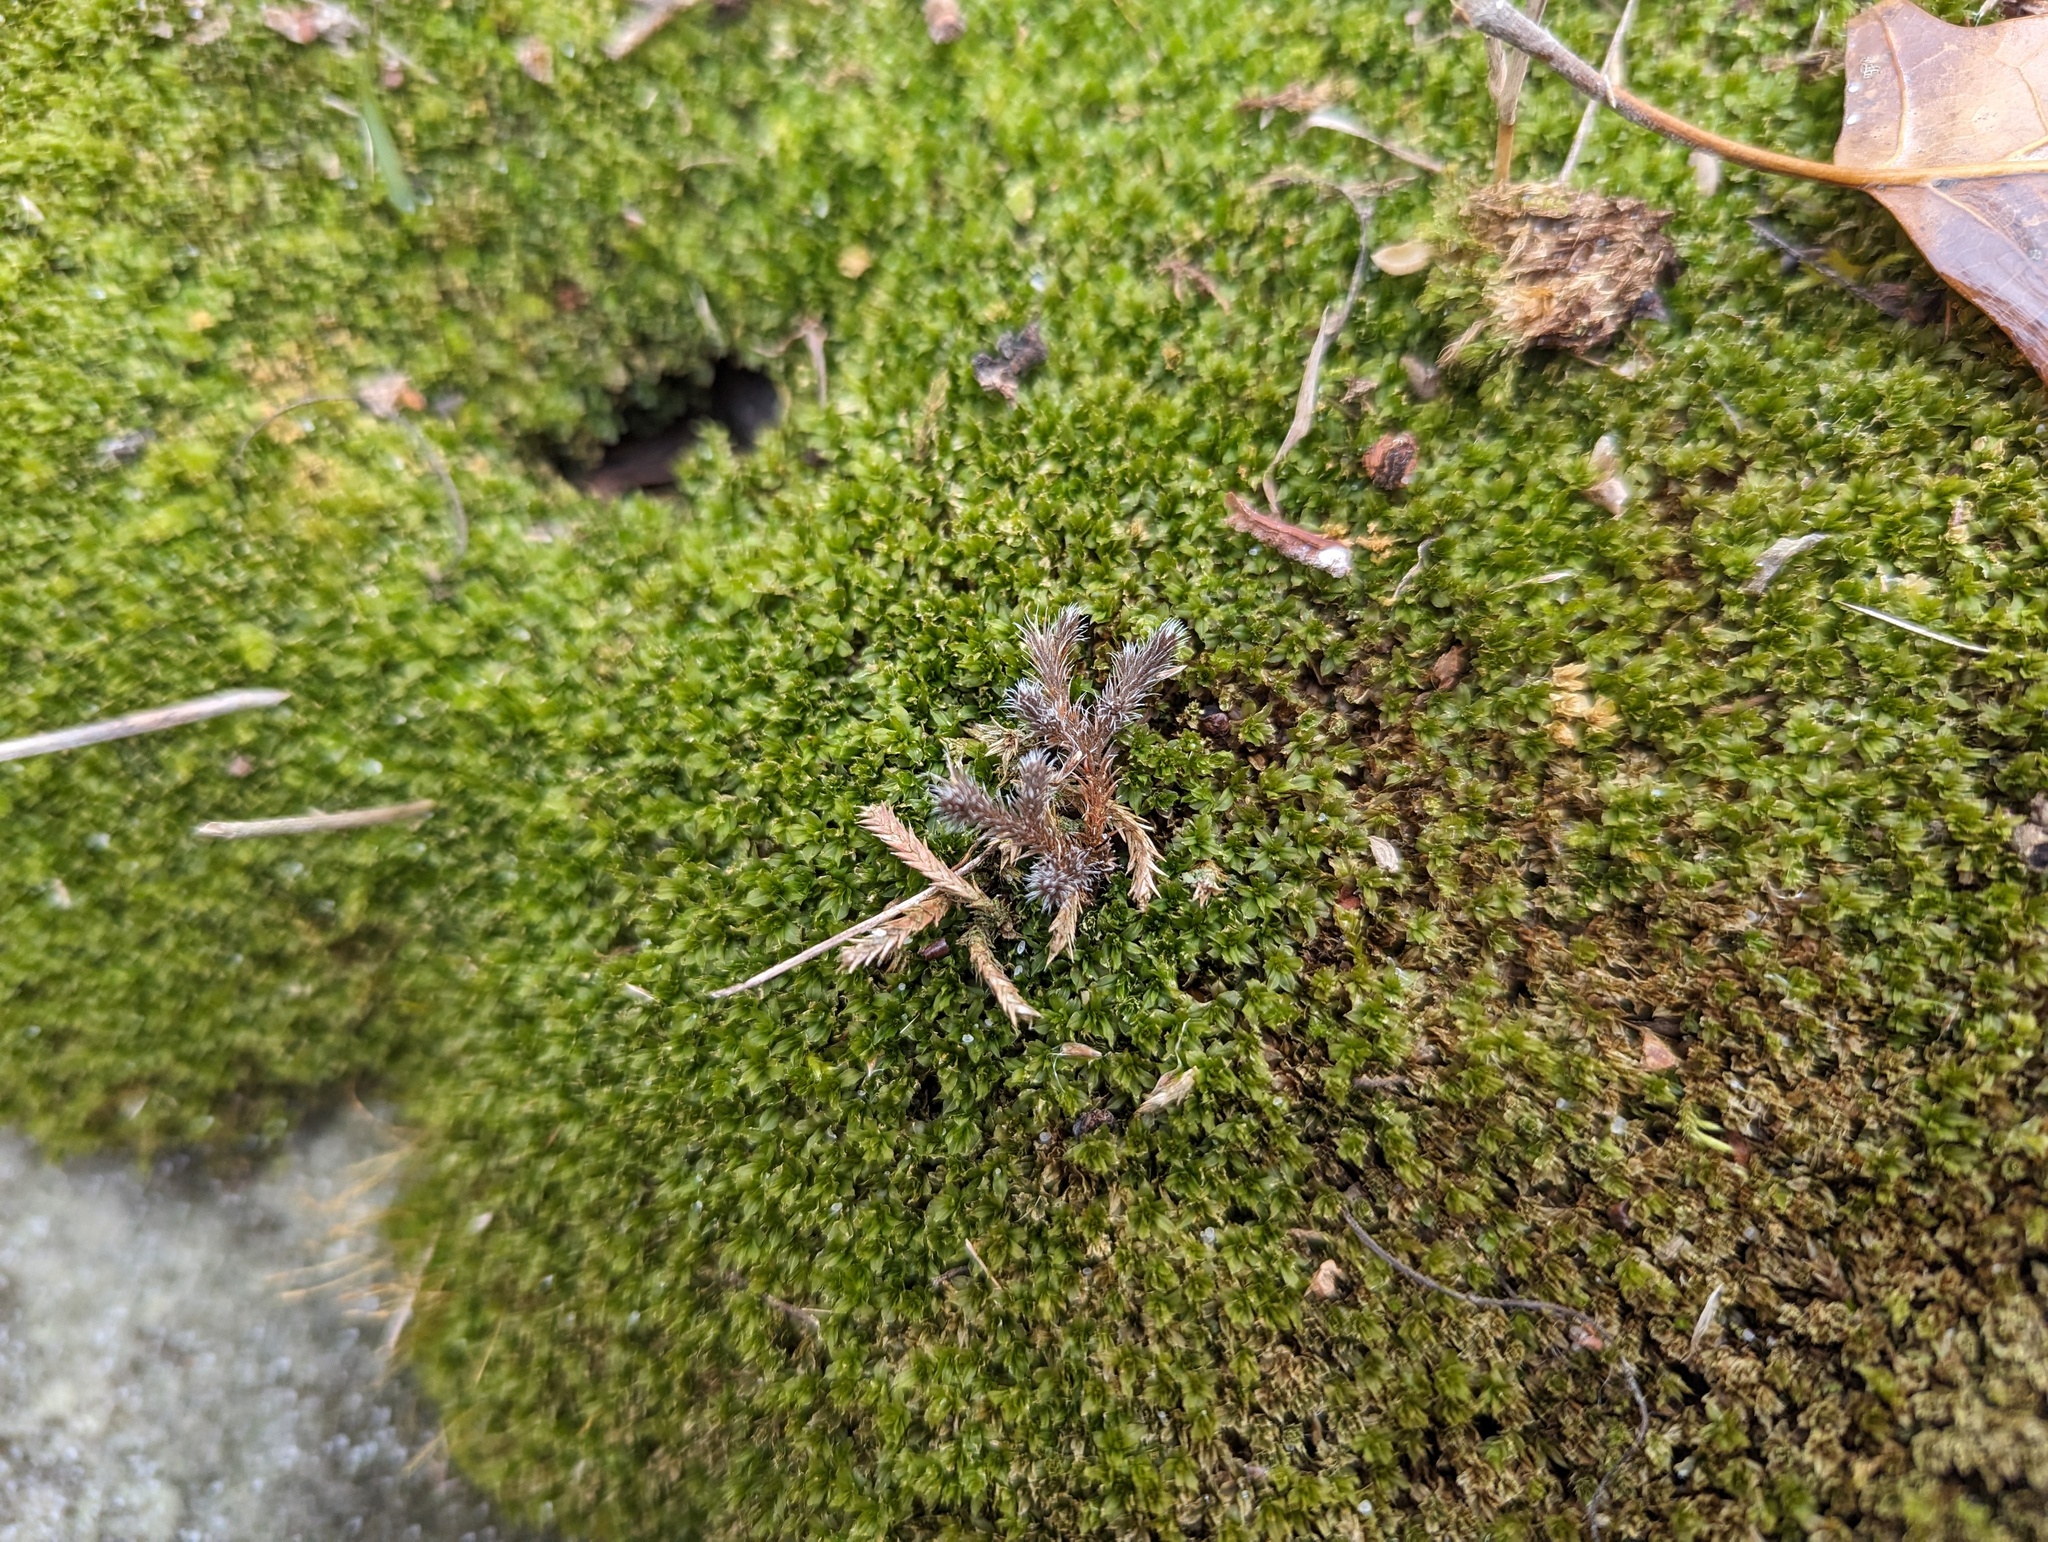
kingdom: Plantae
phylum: Tracheophyta
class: Lycopodiopsida
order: Selaginellales
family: Selaginellaceae
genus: Selaginella
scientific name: Selaginella rupestris
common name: Dwarf spikemoss
